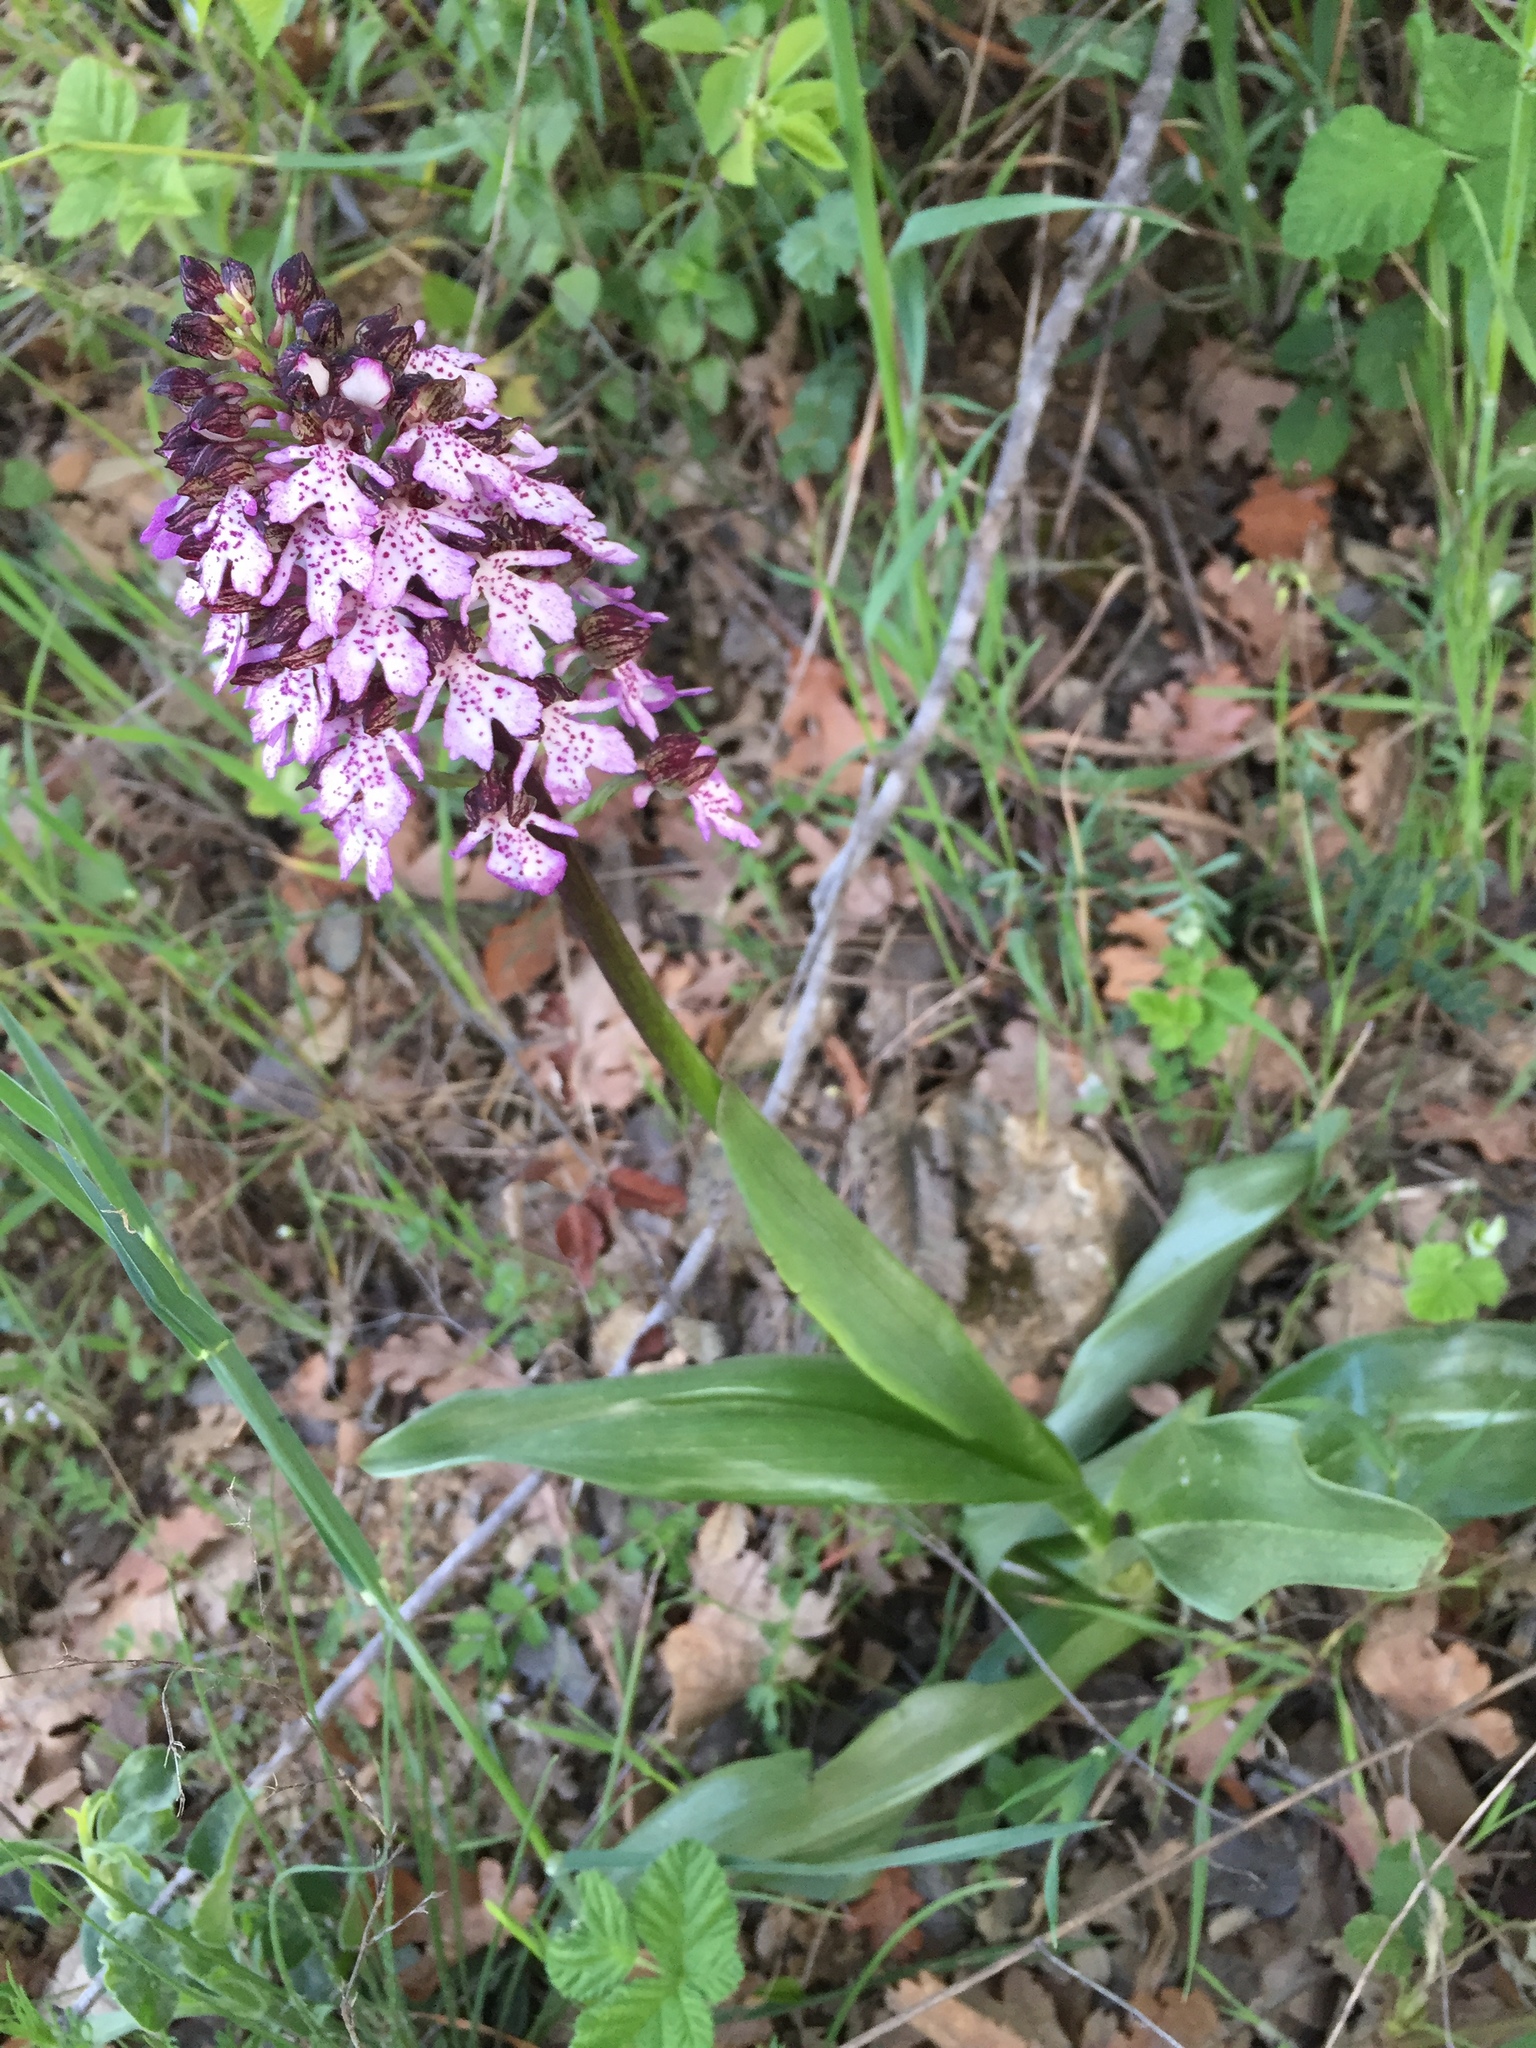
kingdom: Plantae
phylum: Tracheophyta
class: Liliopsida
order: Asparagales
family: Orchidaceae
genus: Orchis
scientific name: Orchis purpurea
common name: Lady orchid
